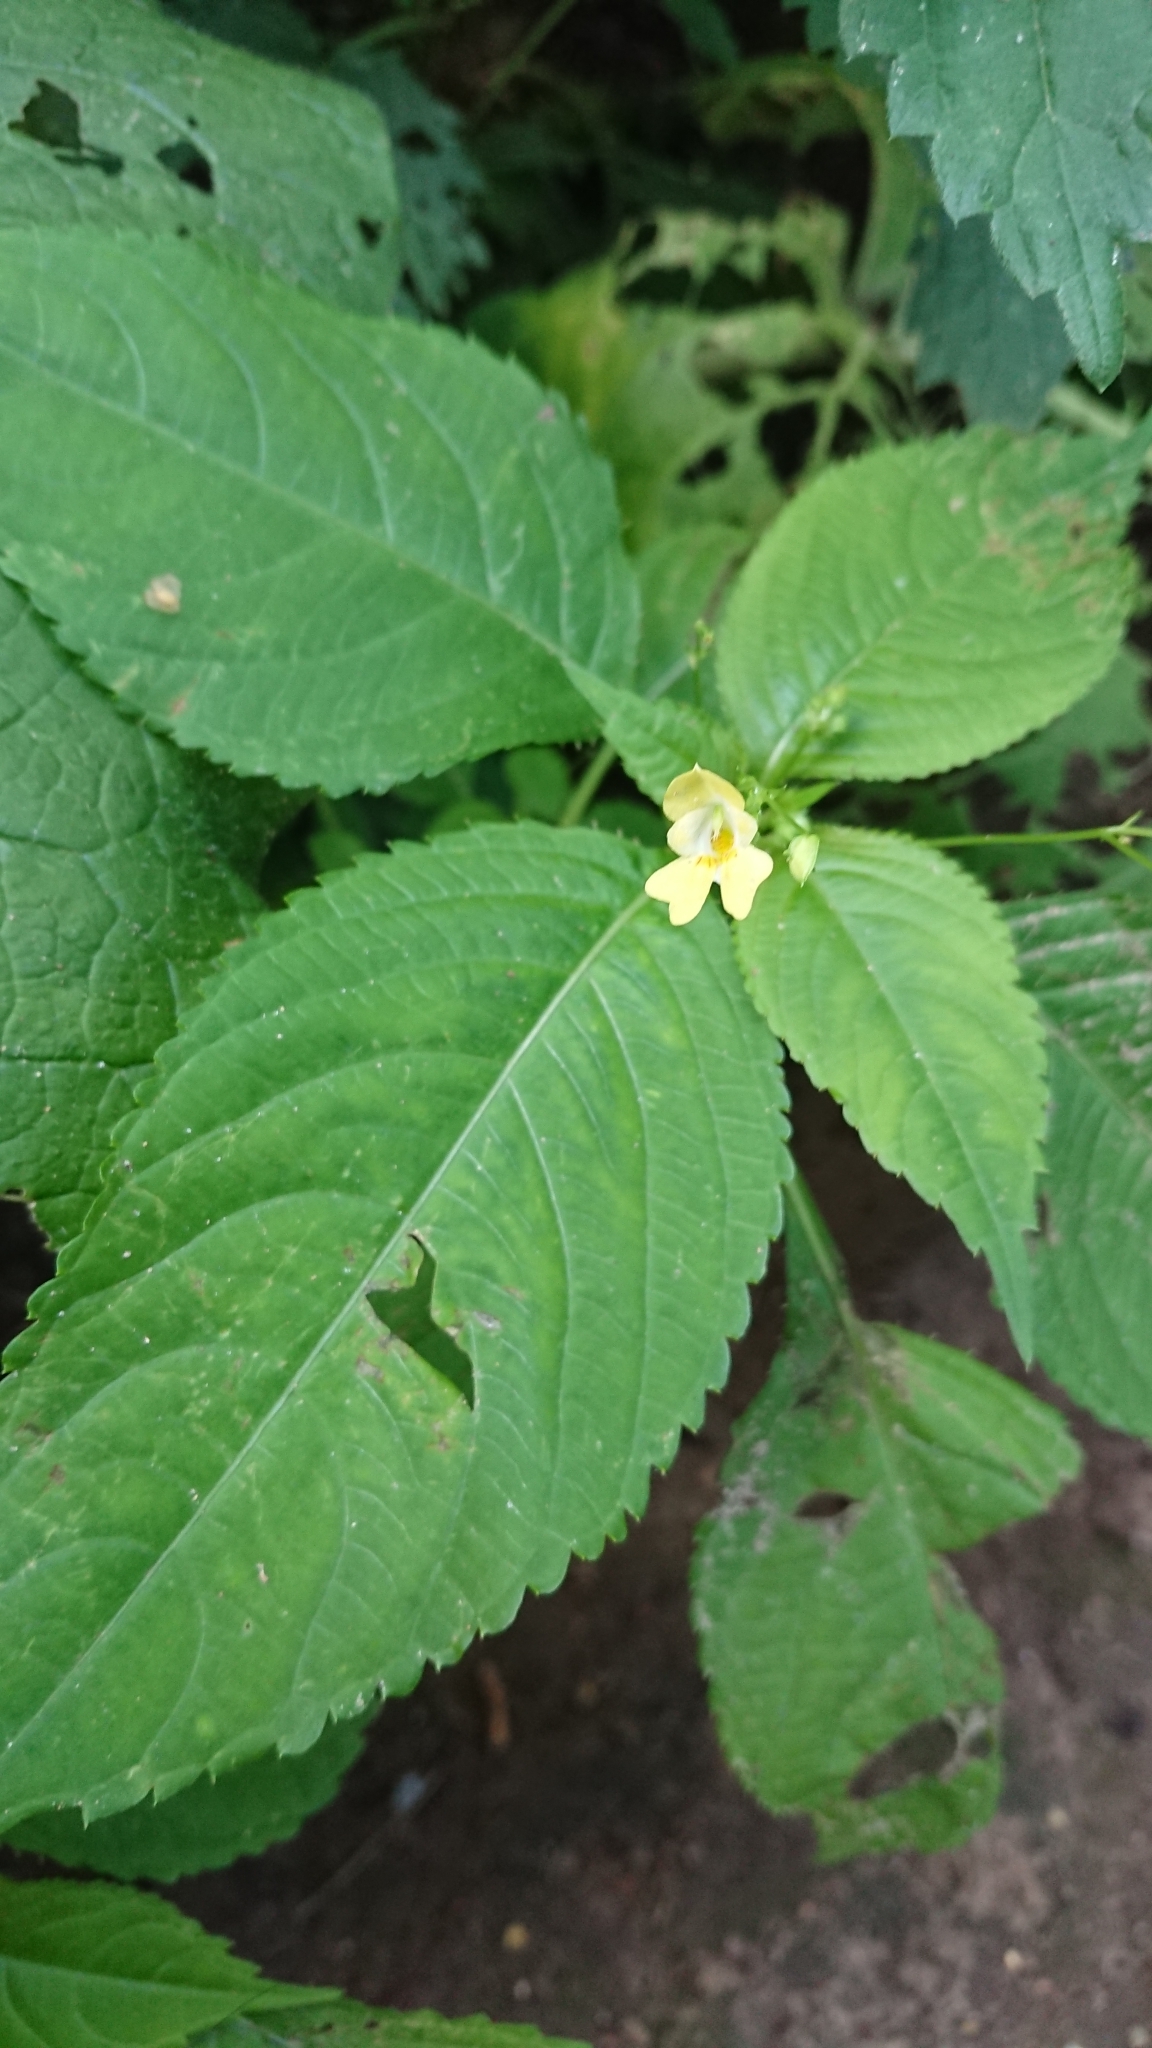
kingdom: Plantae
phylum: Tracheophyta
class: Magnoliopsida
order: Ericales
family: Balsaminaceae
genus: Impatiens
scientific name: Impatiens parviflora
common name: Small balsam
